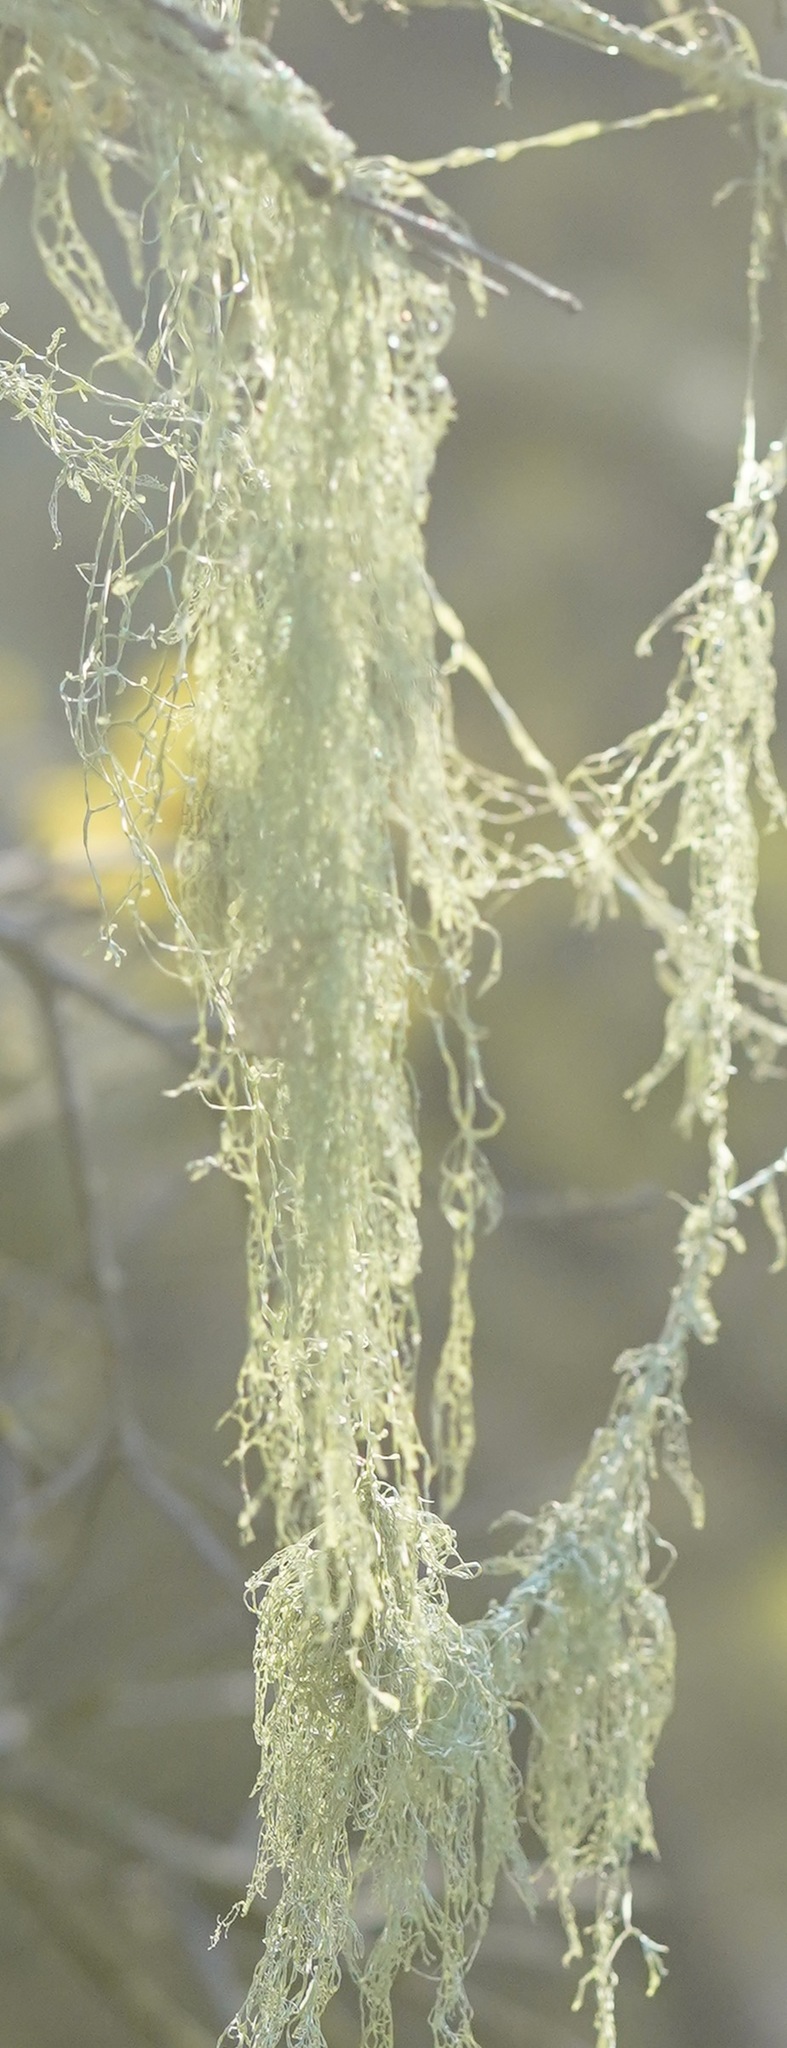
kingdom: Fungi
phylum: Ascomycota
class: Lecanoromycetes
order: Lecanorales
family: Ramalinaceae
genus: Ramalina
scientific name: Ramalina menziesii
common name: Lace lichen
